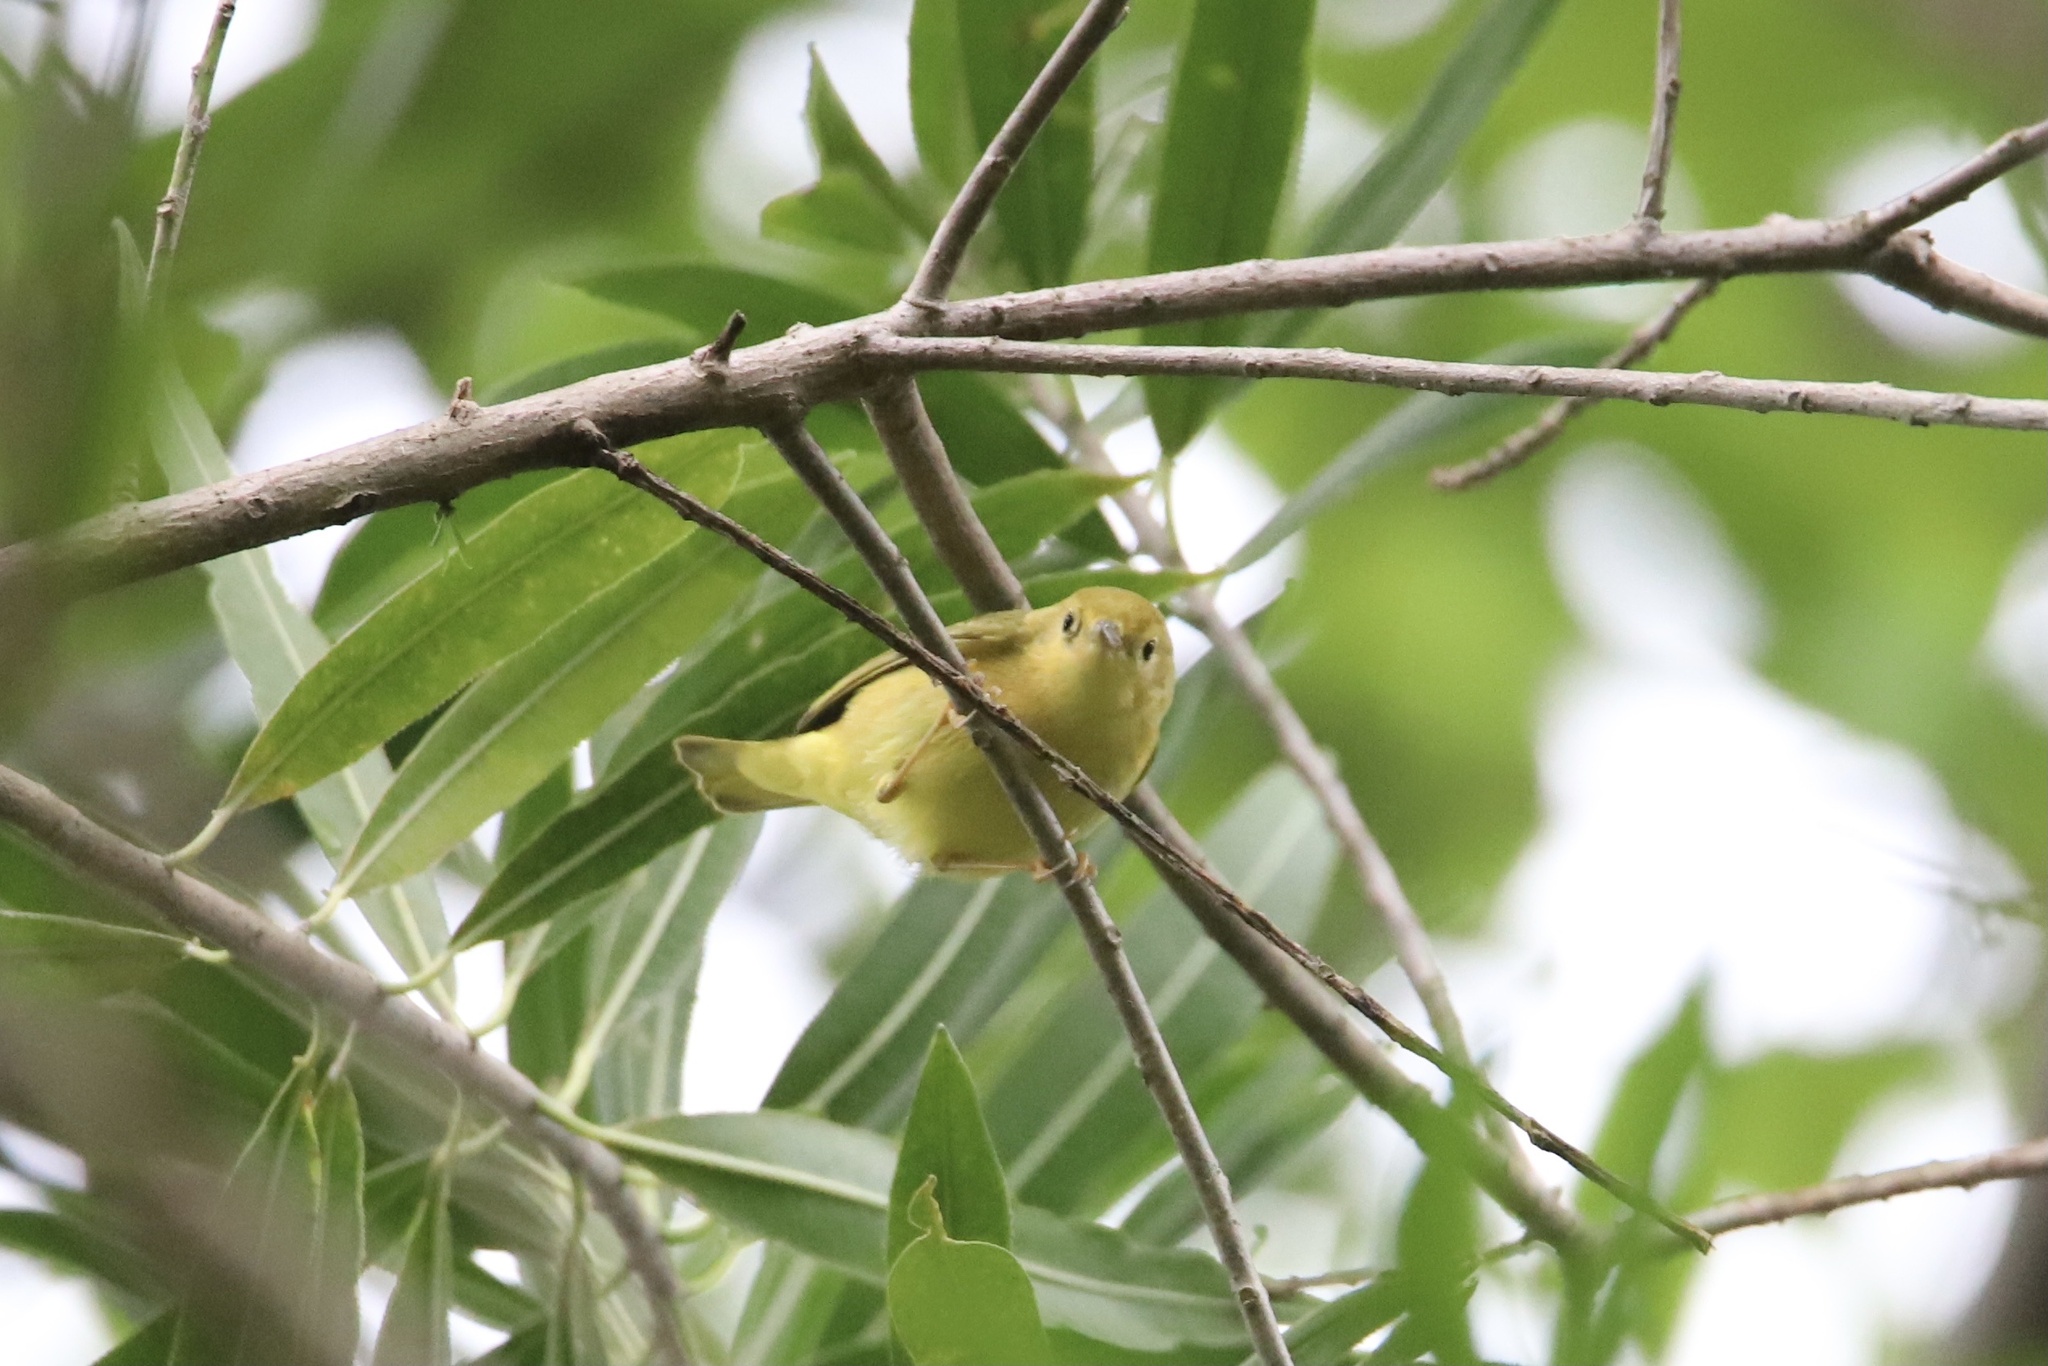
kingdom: Animalia
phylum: Chordata
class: Aves
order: Passeriformes
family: Parulidae
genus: Setophaga
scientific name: Setophaga petechia
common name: Yellow warbler
